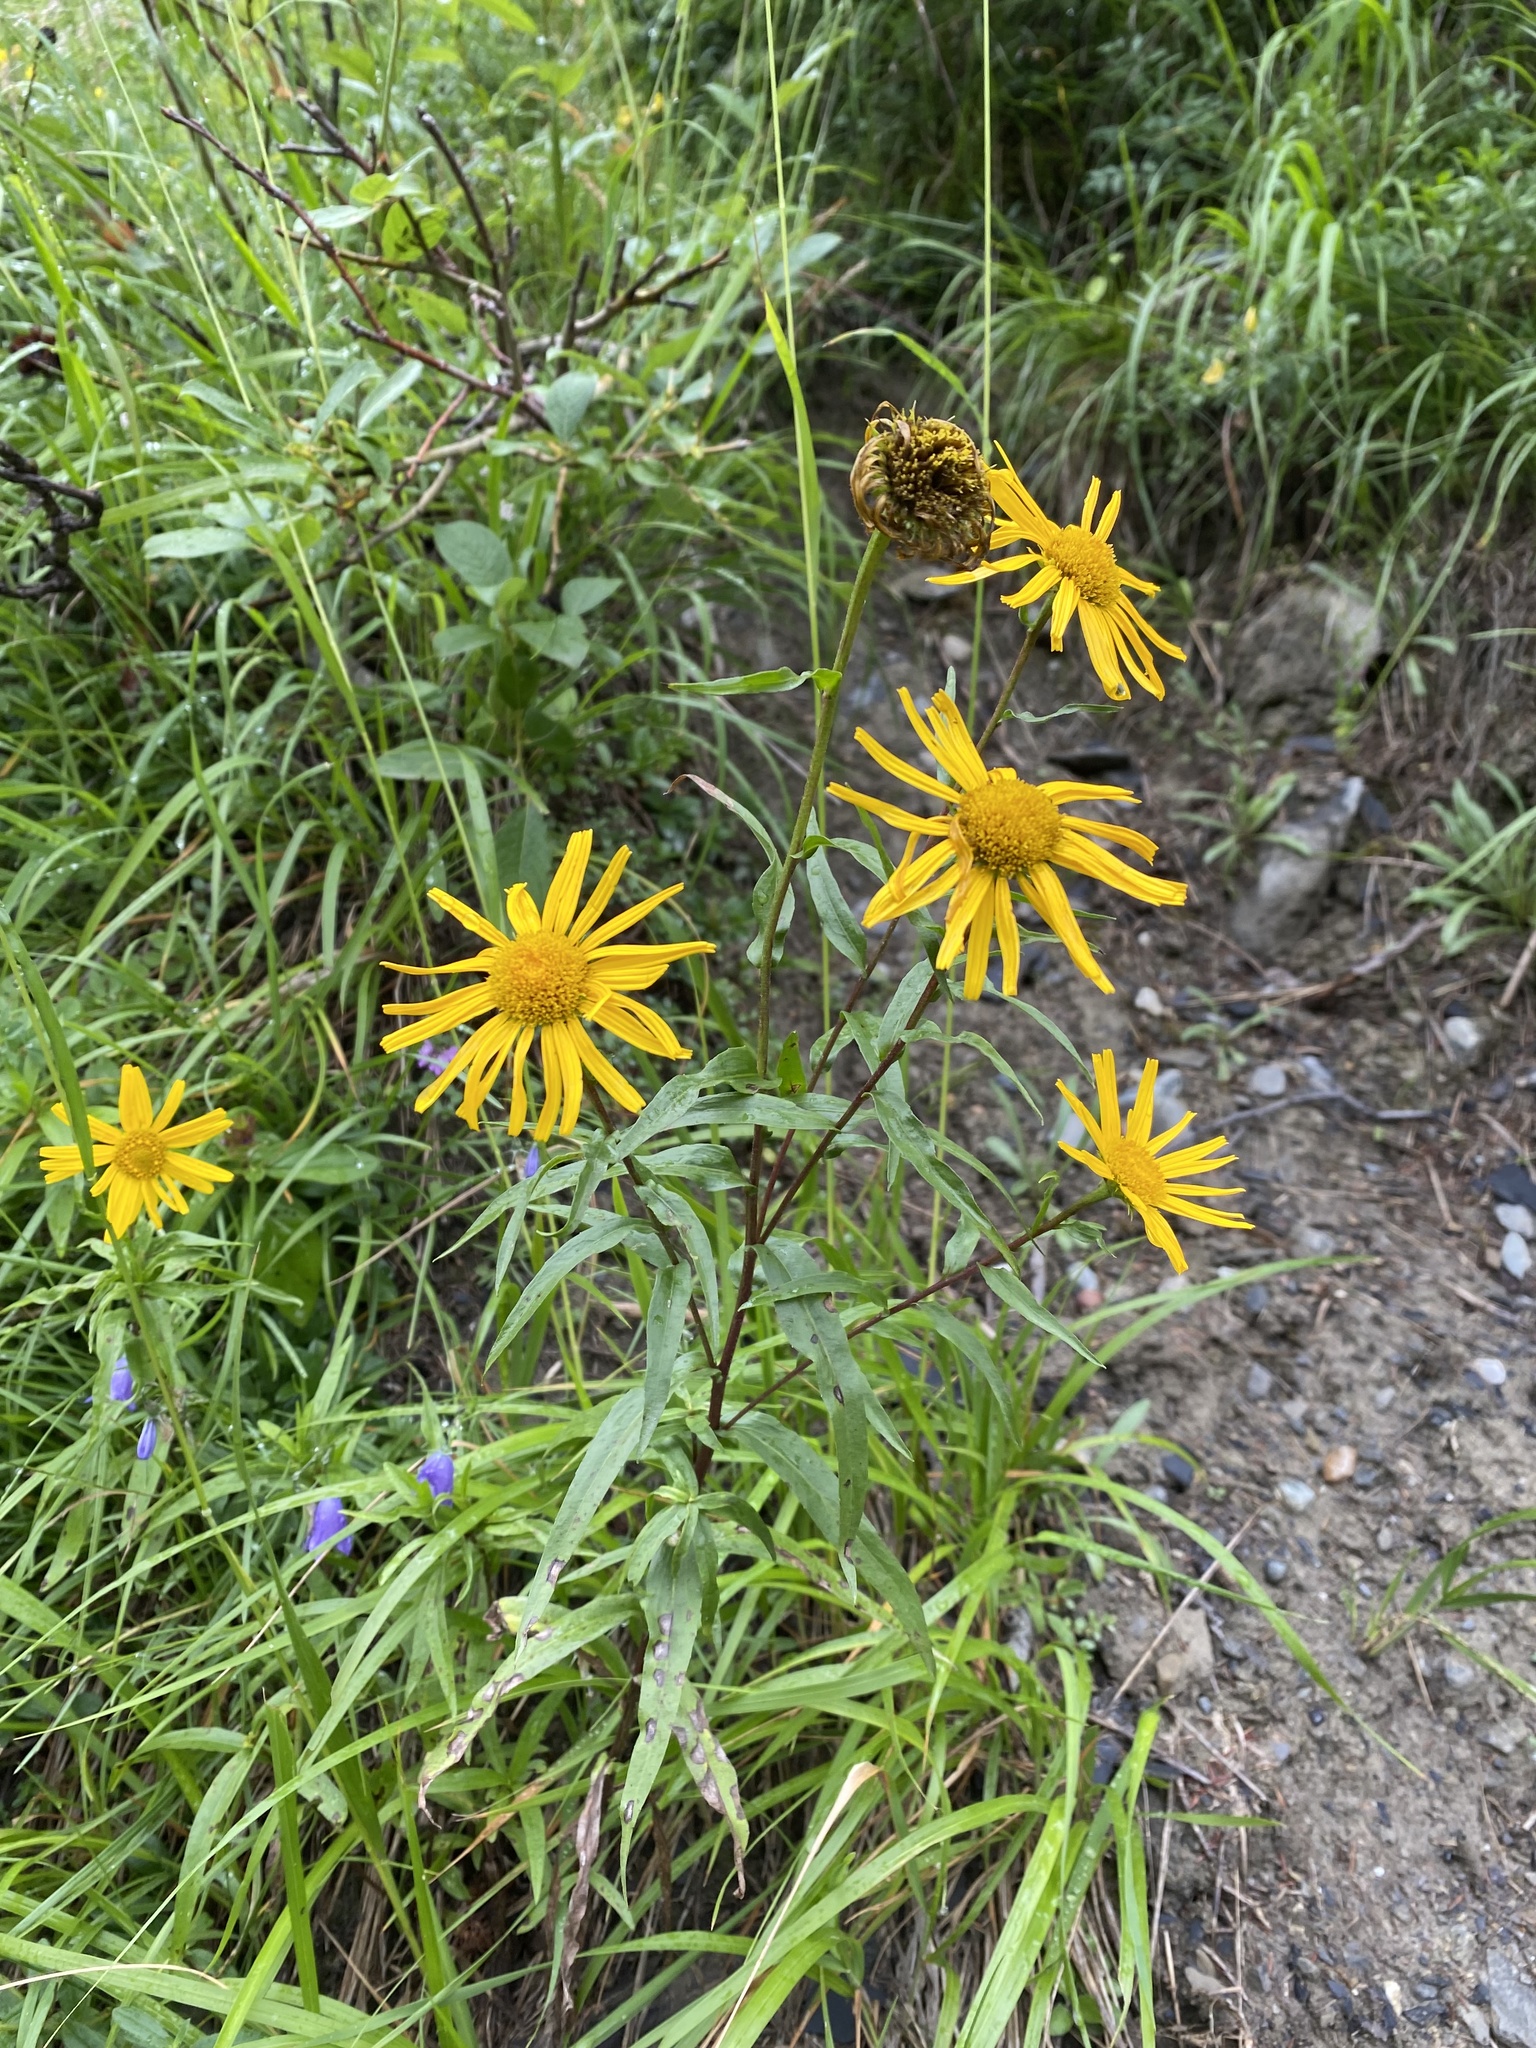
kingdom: Plantae
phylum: Tracheophyta
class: Magnoliopsida
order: Asterales
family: Asteraceae
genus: Buphthalmum
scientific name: Buphthalmum salicifolium
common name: Willow-leaved yellow-oxeye
